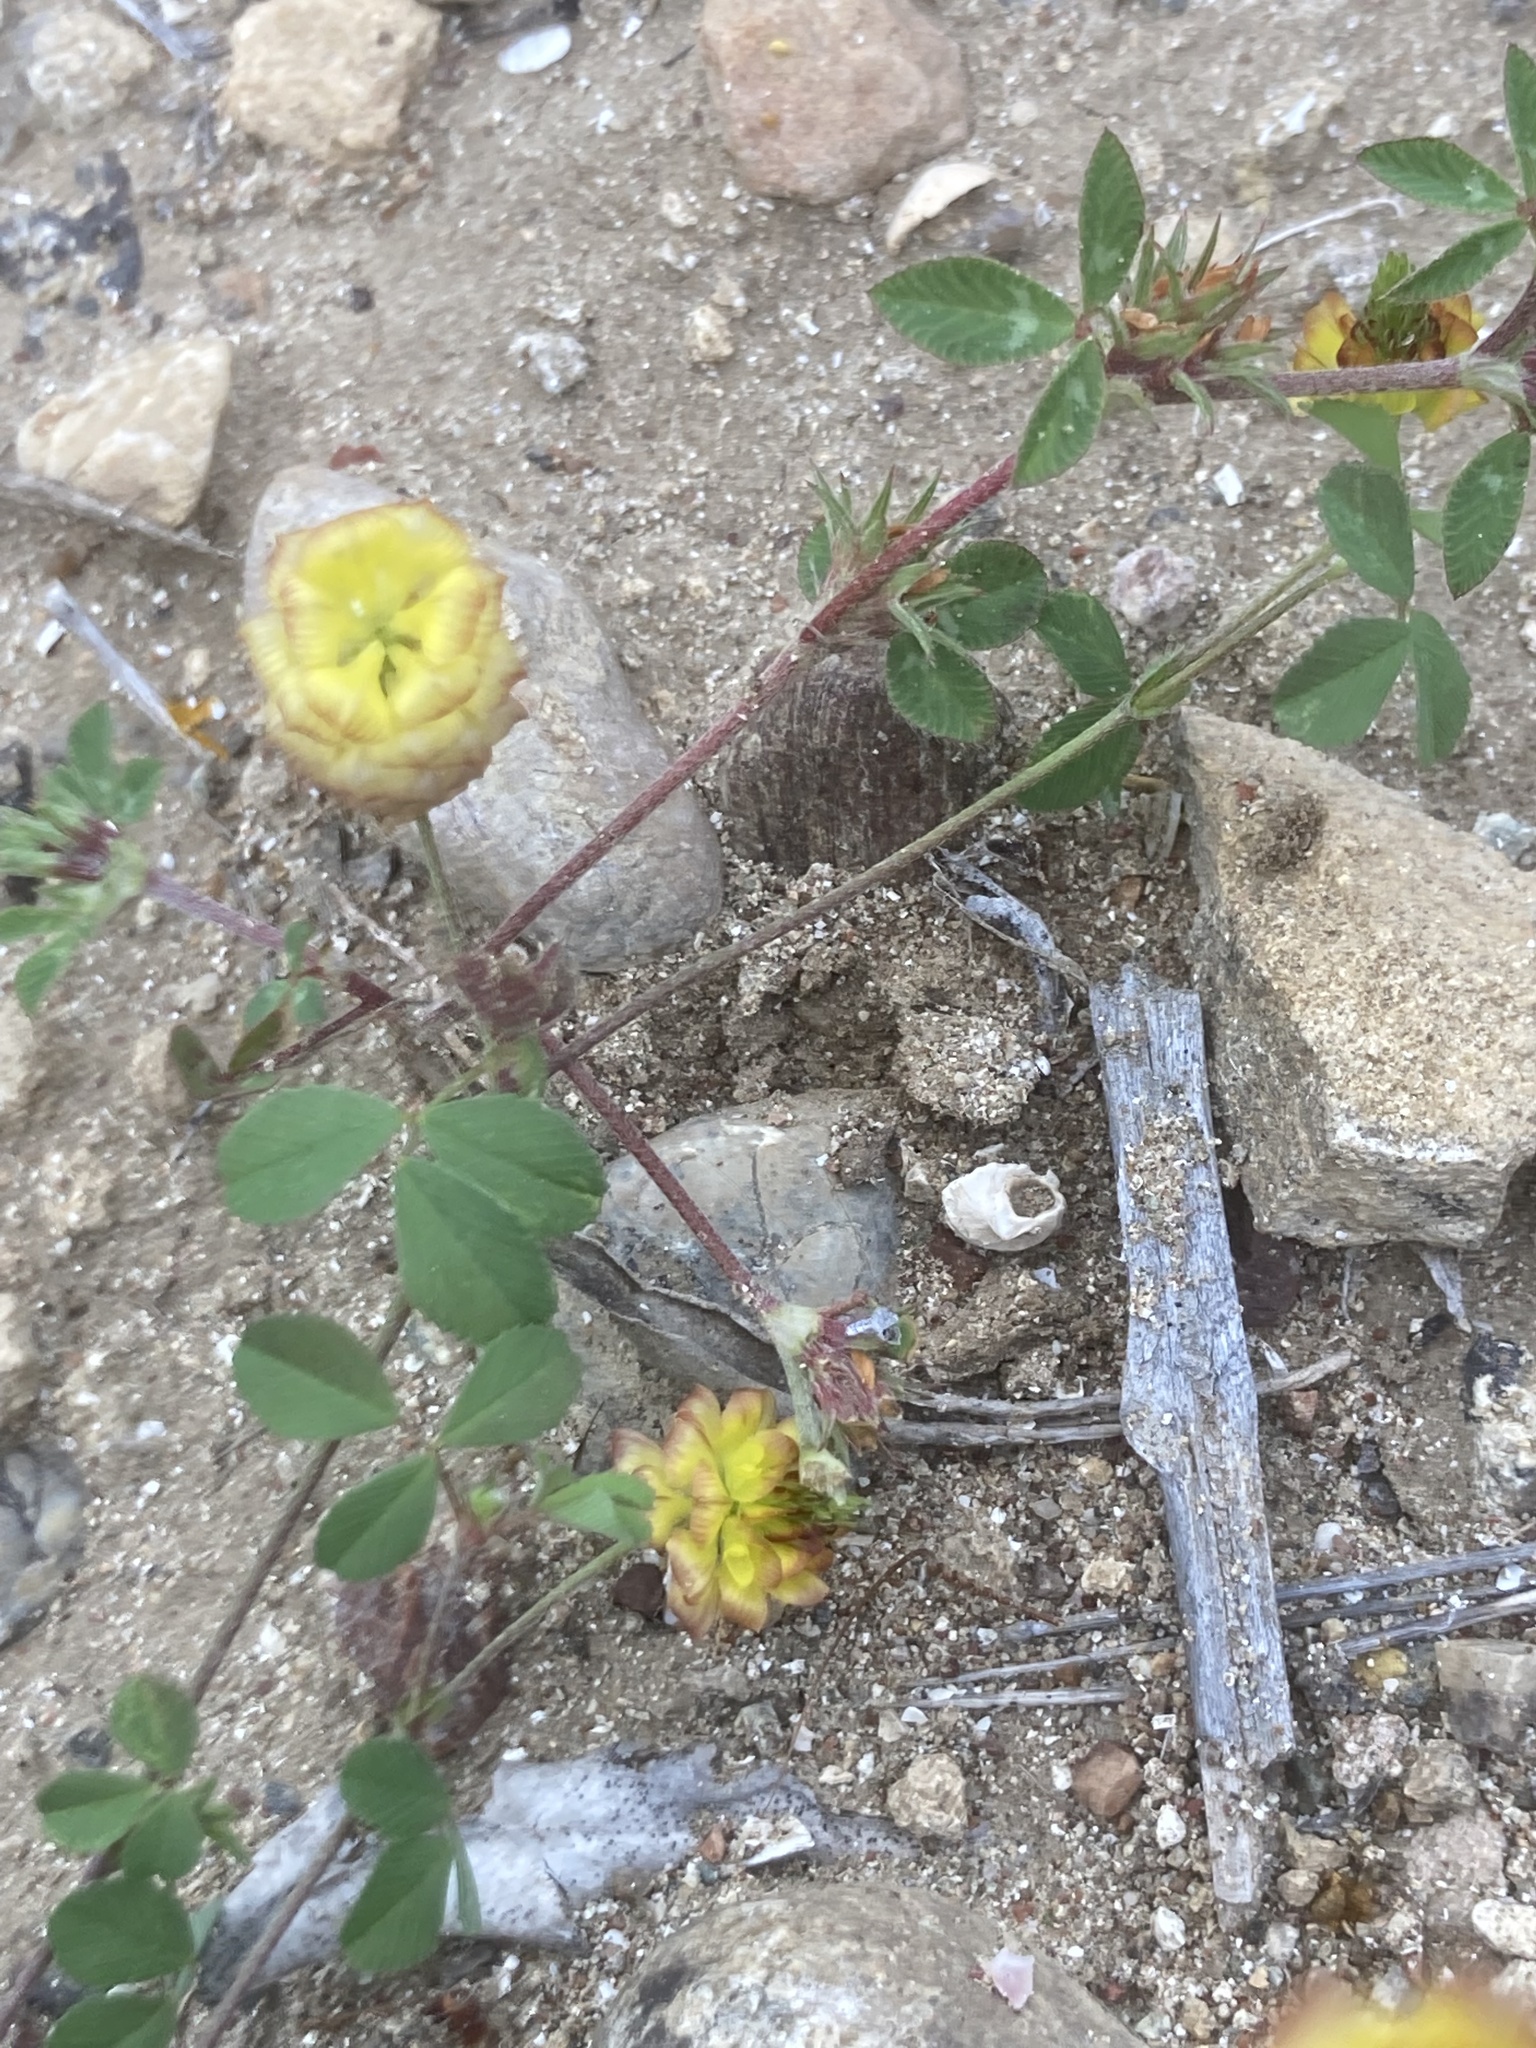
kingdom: Plantae
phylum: Tracheophyta
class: Magnoliopsida
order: Fabales
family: Fabaceae
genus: Trifolium
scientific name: Trifolium campestre
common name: Field clover
